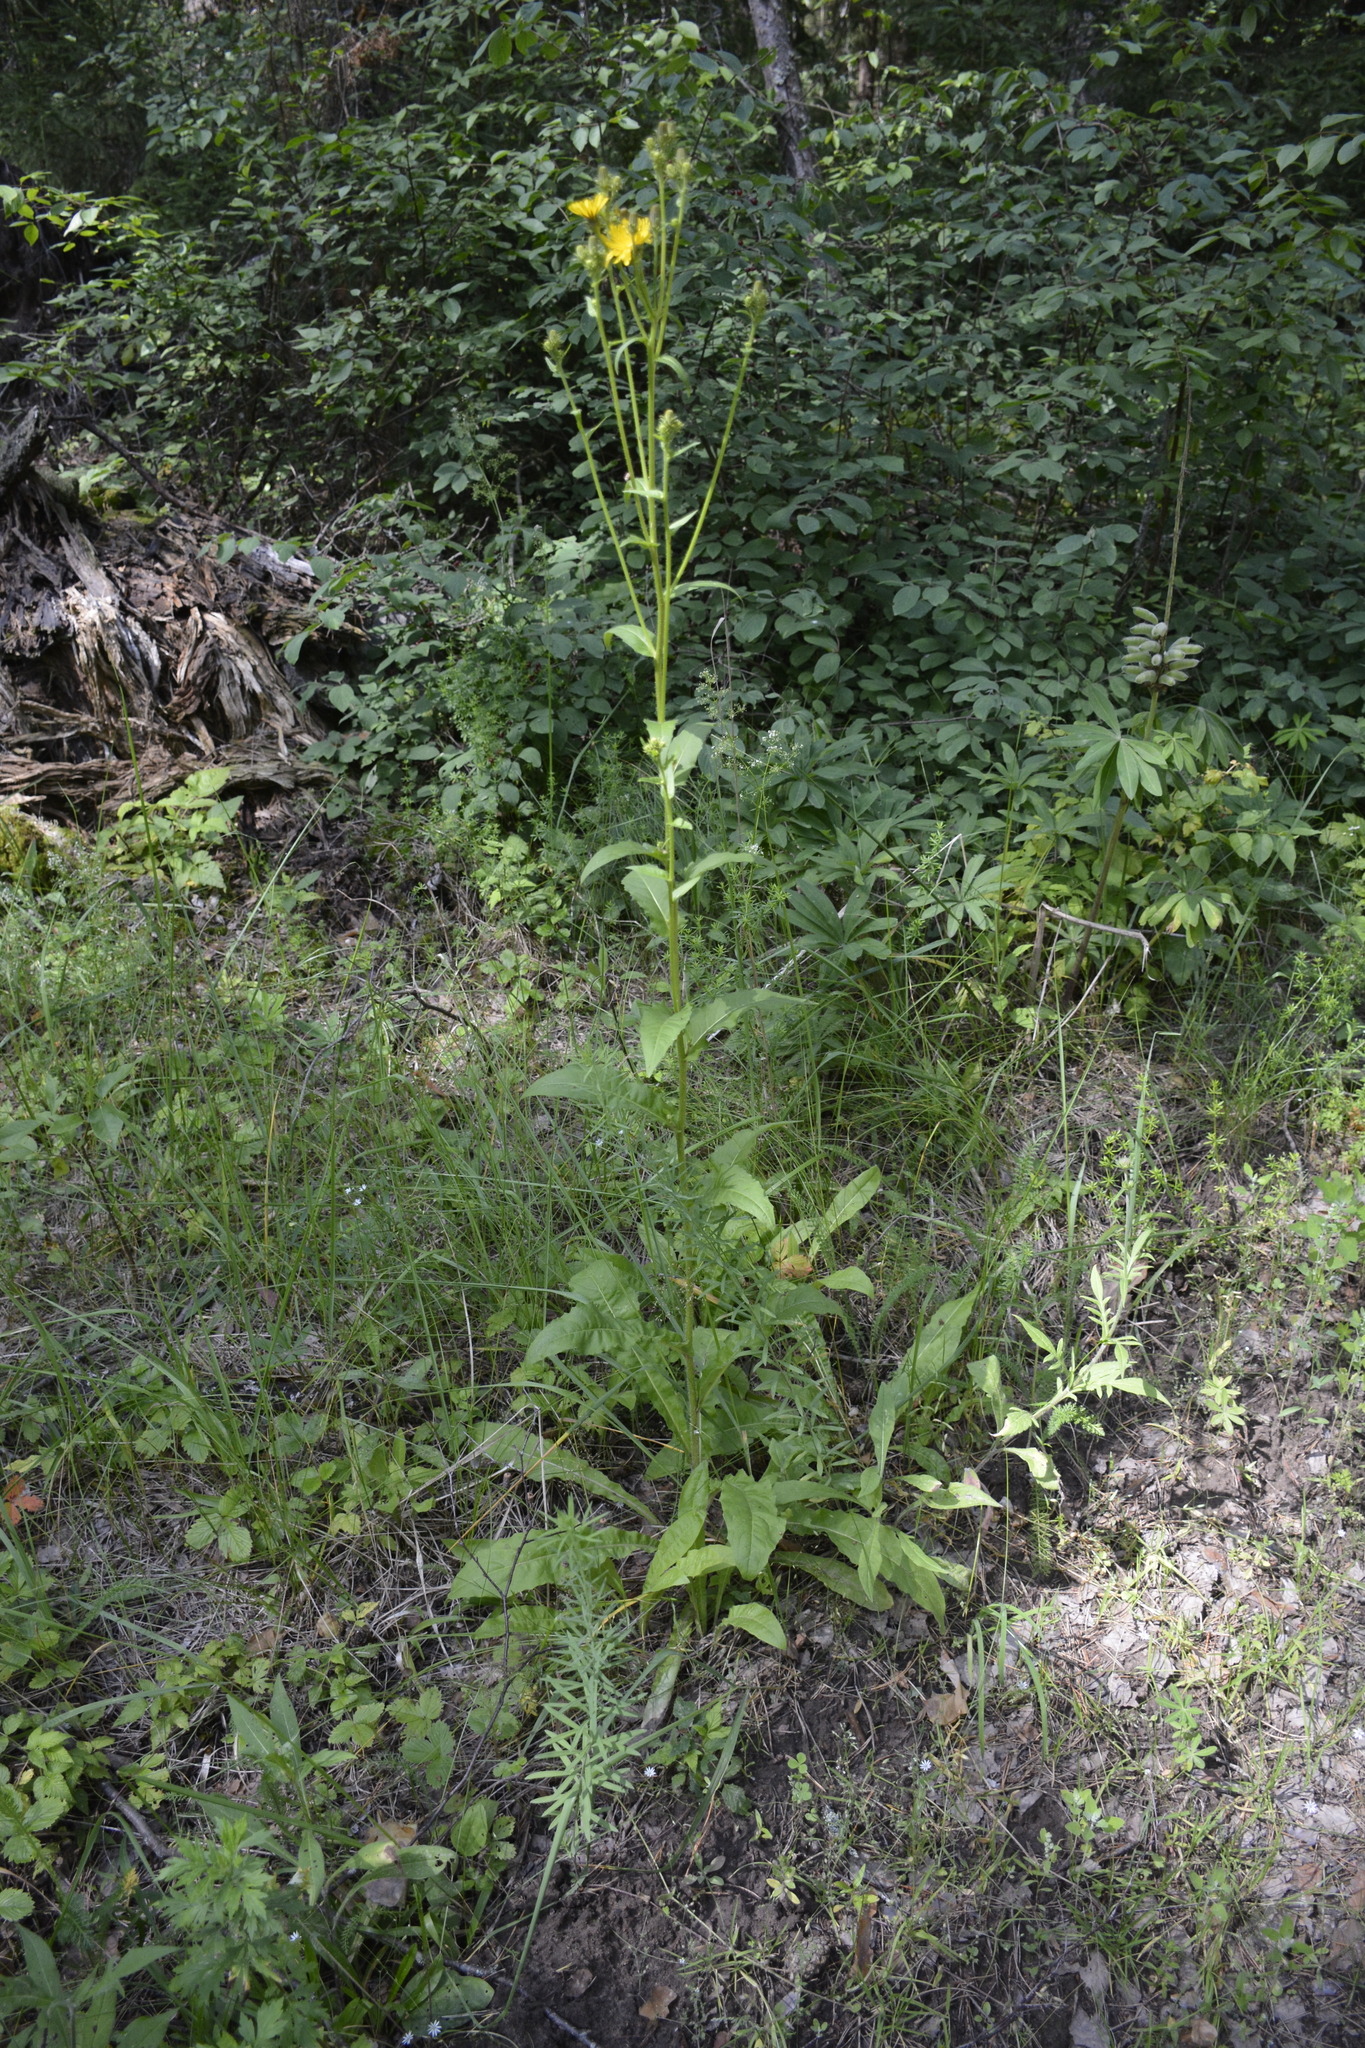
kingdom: Plantae
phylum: Tracheophyta
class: Magnoliopsida
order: Asterales
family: Asteraceae
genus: Picris
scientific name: Picris hieracioides
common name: Hawkweed oxtongue
